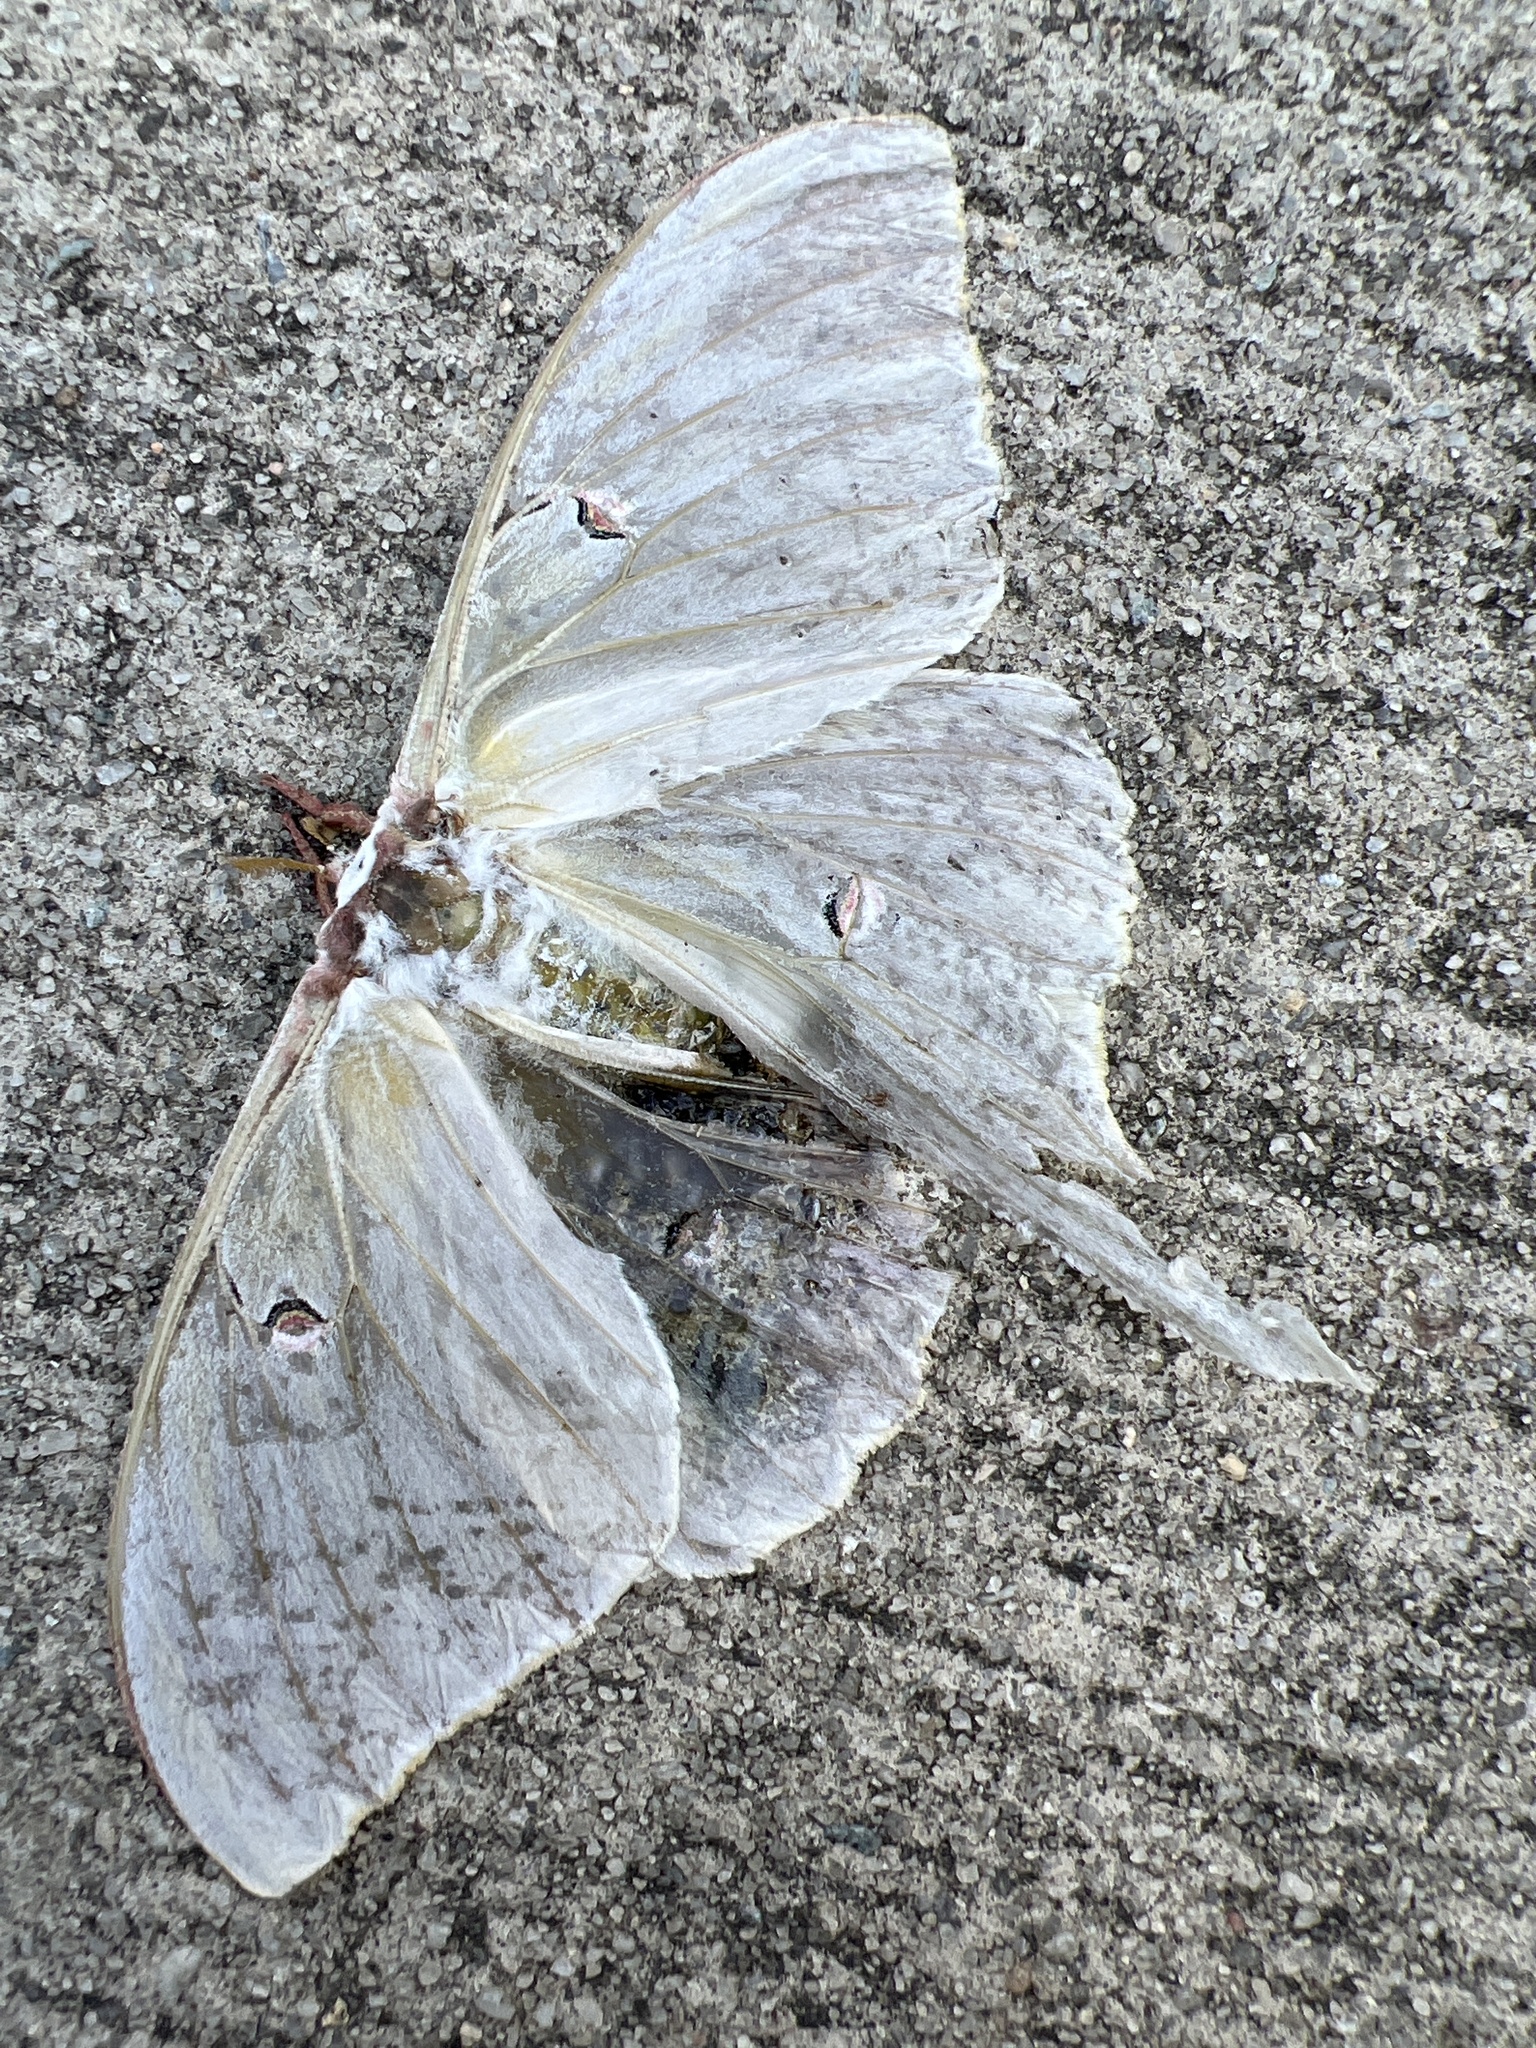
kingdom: Animalia
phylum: Arthropoda
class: Insecta
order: Lepidoptera
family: Saturniidae
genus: Actias
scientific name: Actias luna
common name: Luna moth
